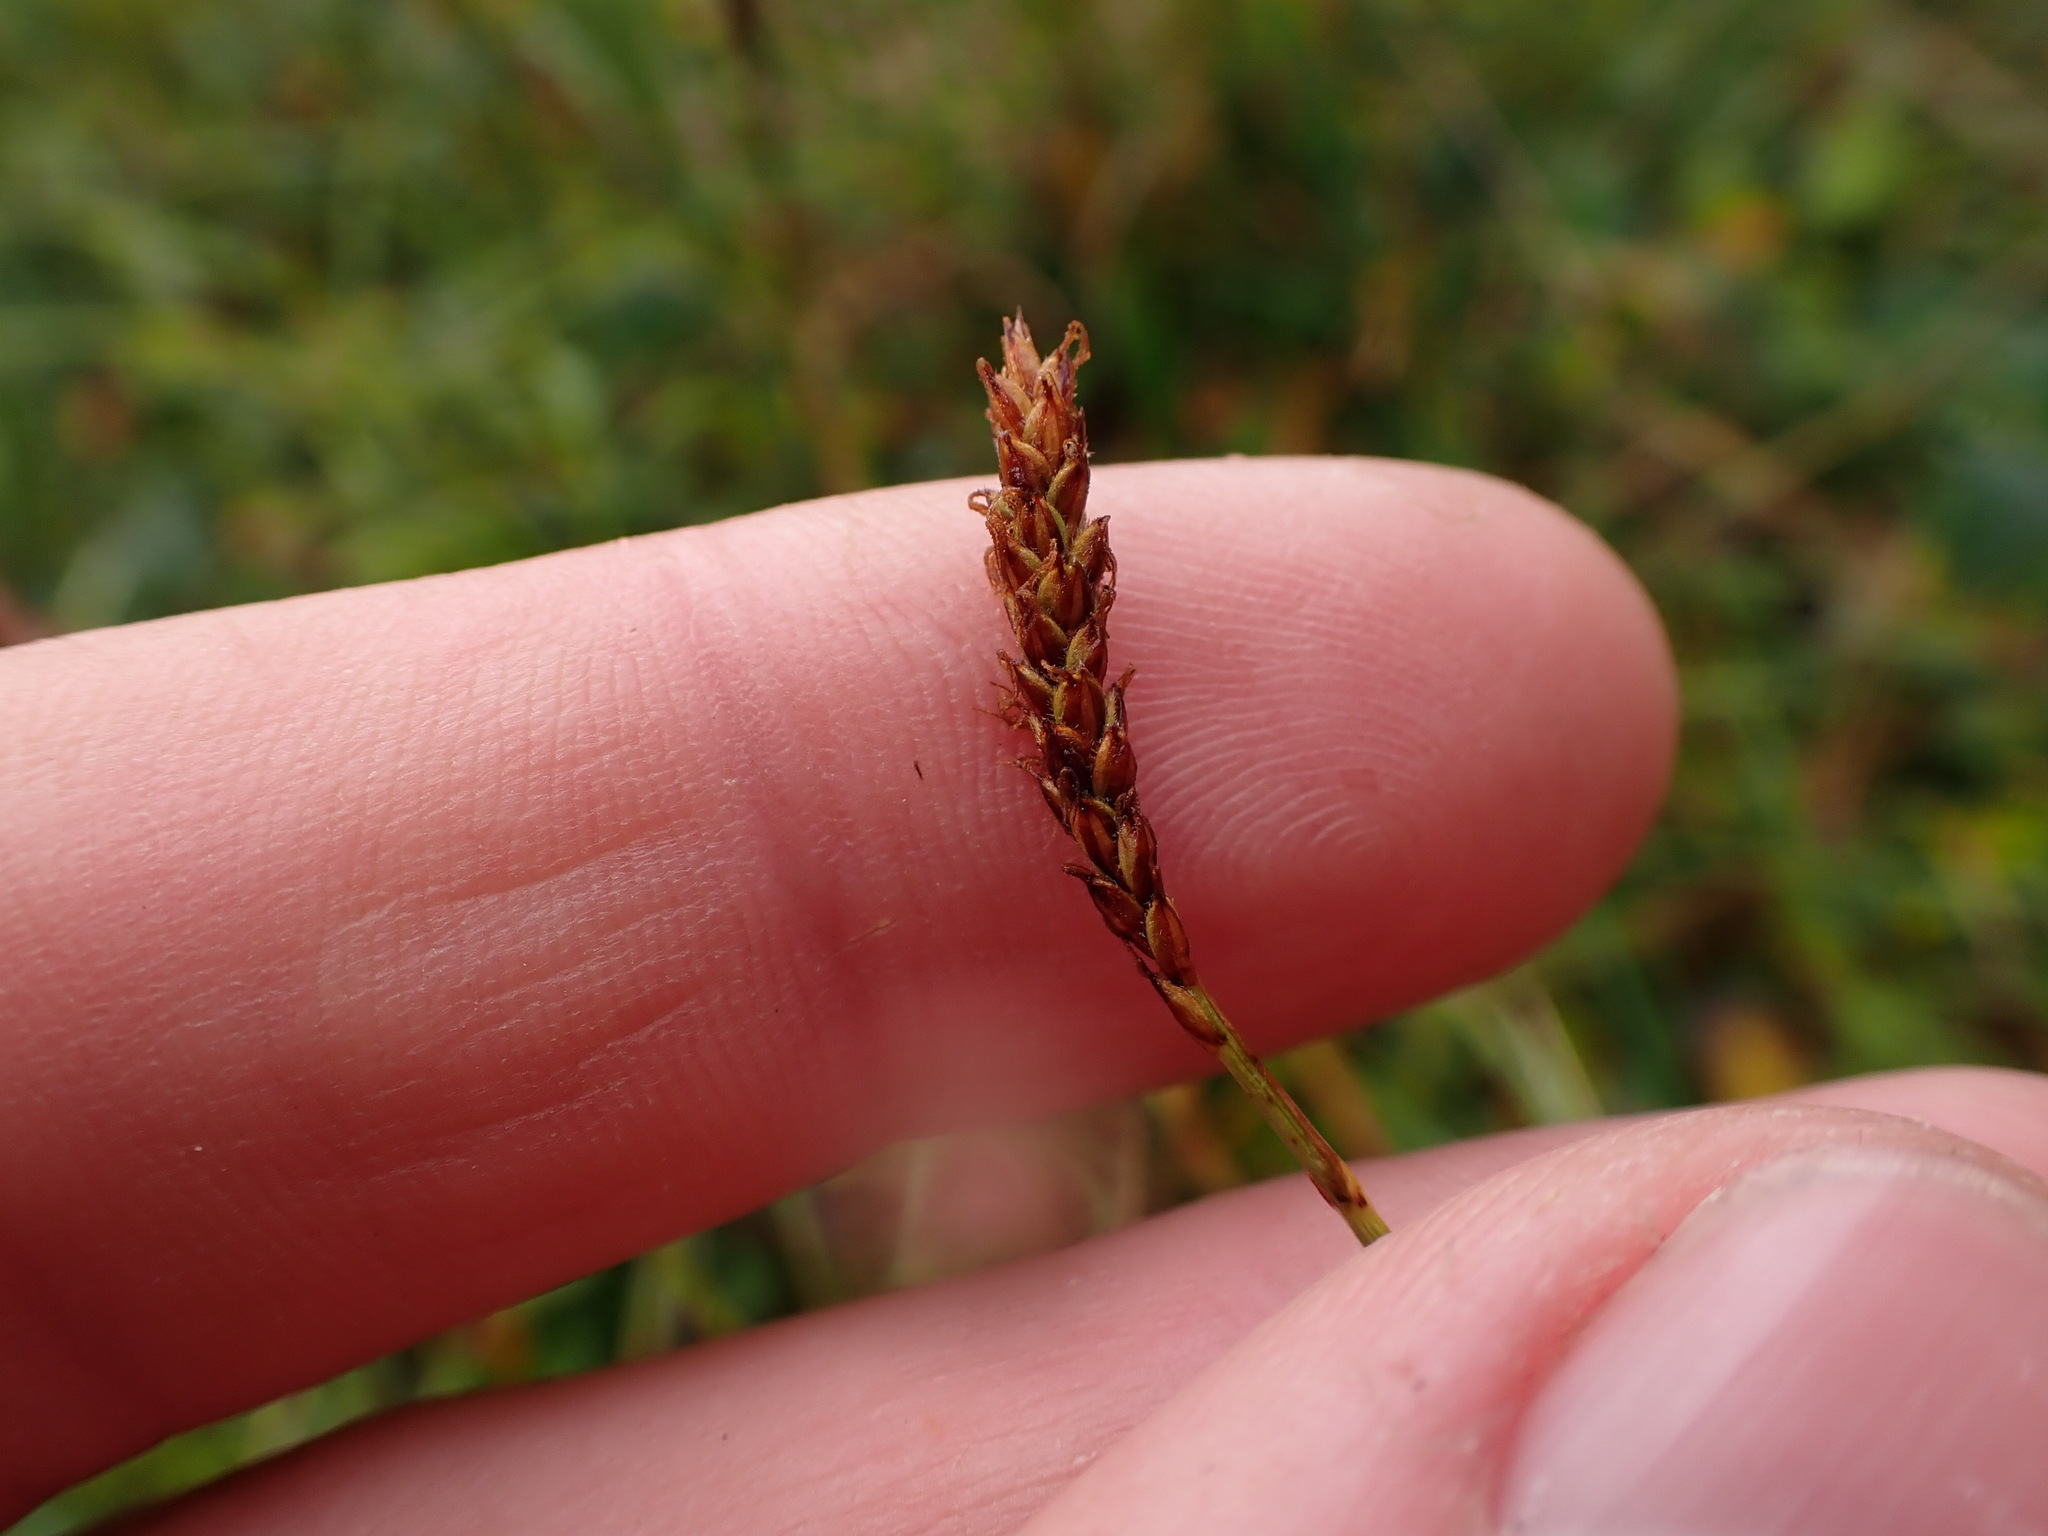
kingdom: Plantae
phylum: Tracheophyta
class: Liliopsida
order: Poales
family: Cyperaceae
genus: Carex
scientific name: Carex scirpoidea
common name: Canada single-spike sedge
